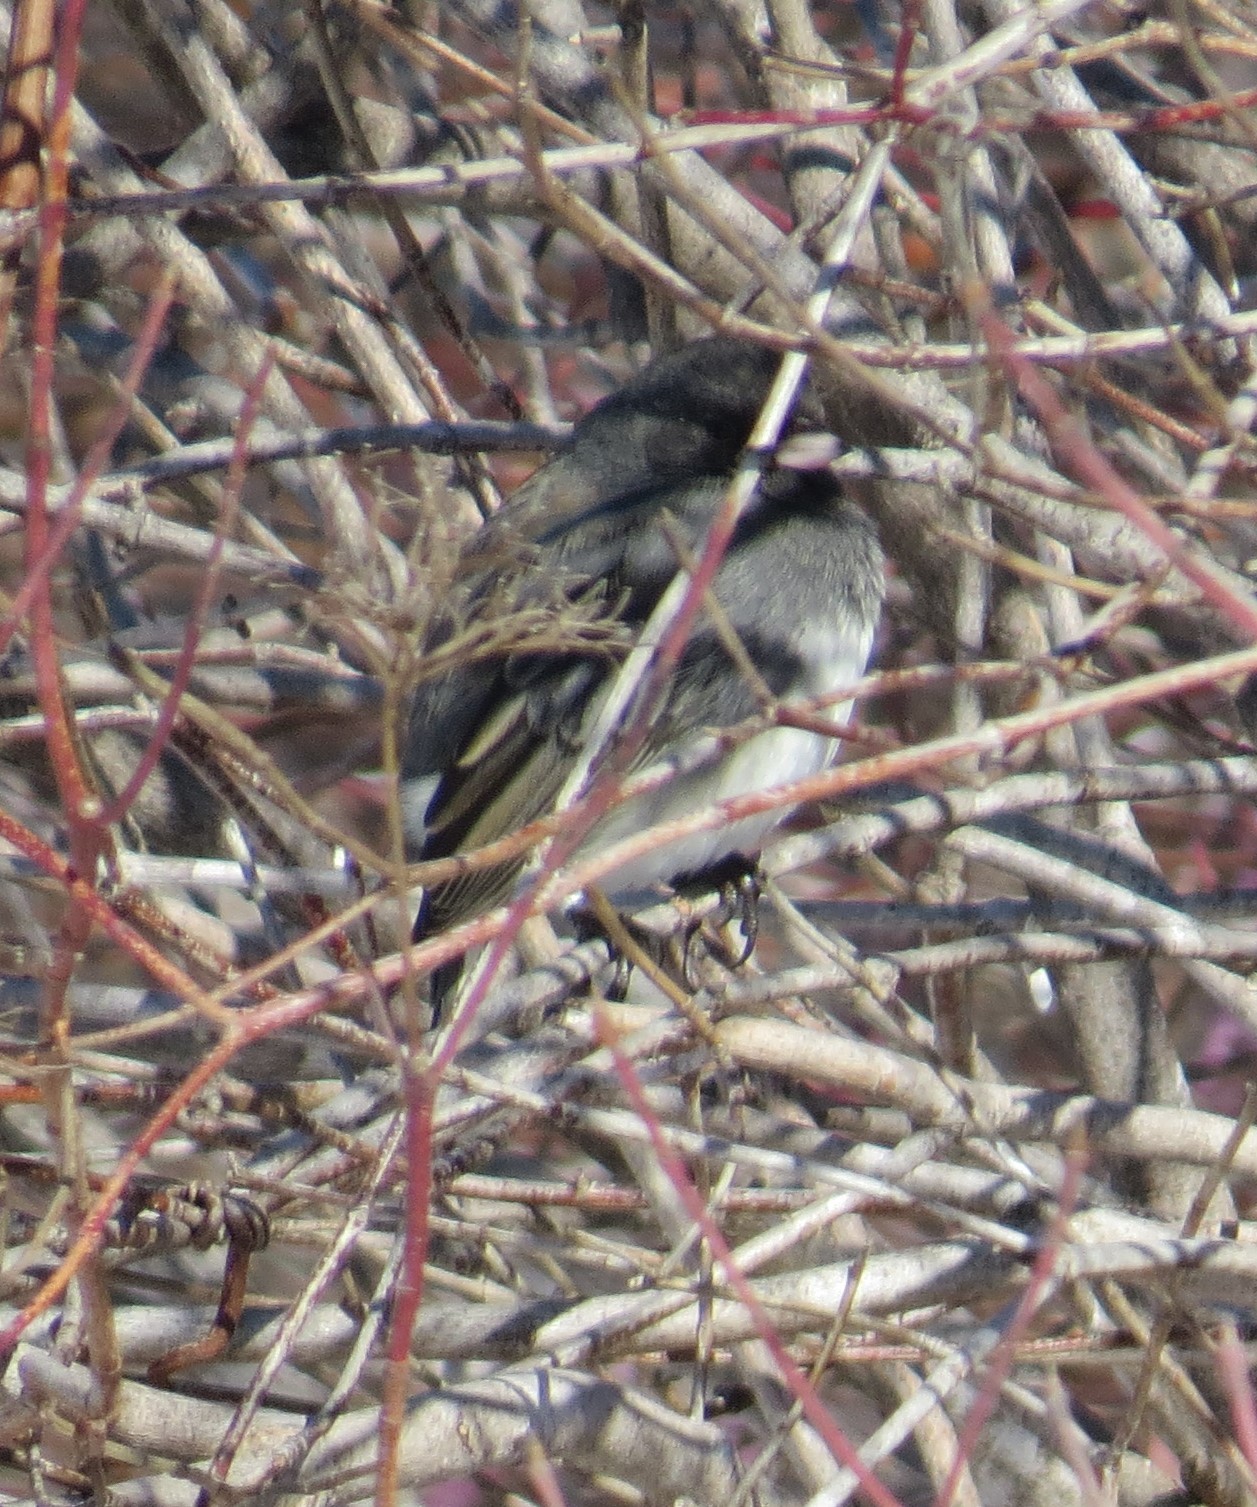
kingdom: Animalia
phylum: Chordata
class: Aves
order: Passeriformes
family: Passerellidae
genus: Junco
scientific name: Junco hyemalis
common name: Dark-eyed junco
